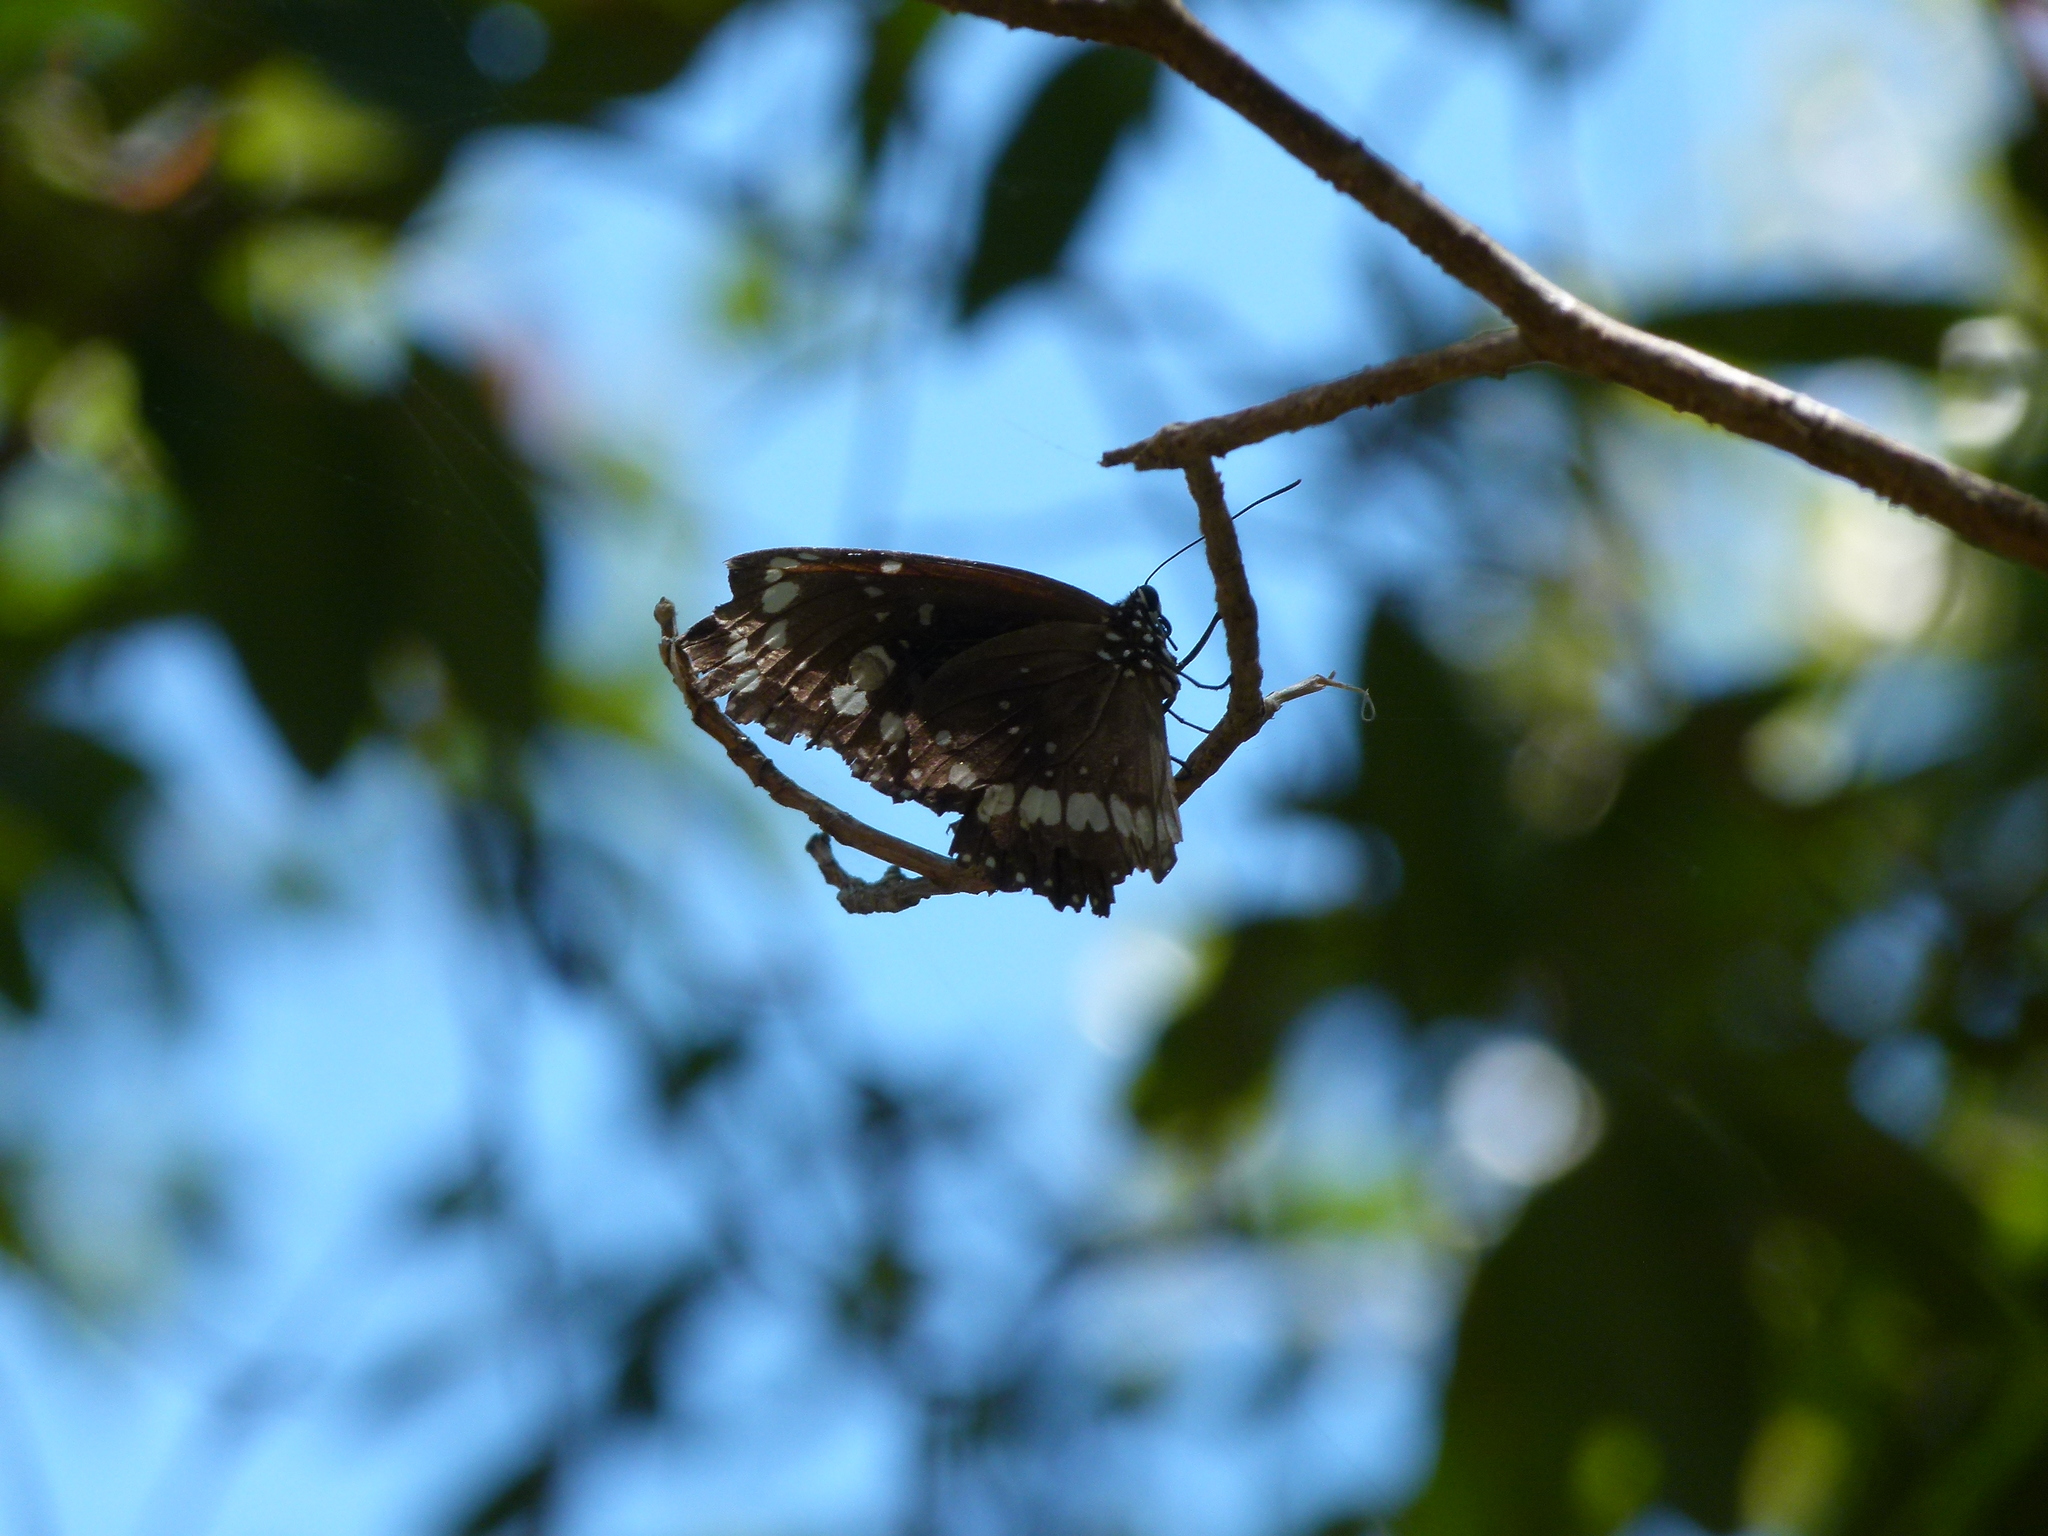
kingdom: Animalia
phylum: Arthropoda
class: Insecta
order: Lepidoptera
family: Nymphalidae
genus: Euploea
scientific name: Euploea core
